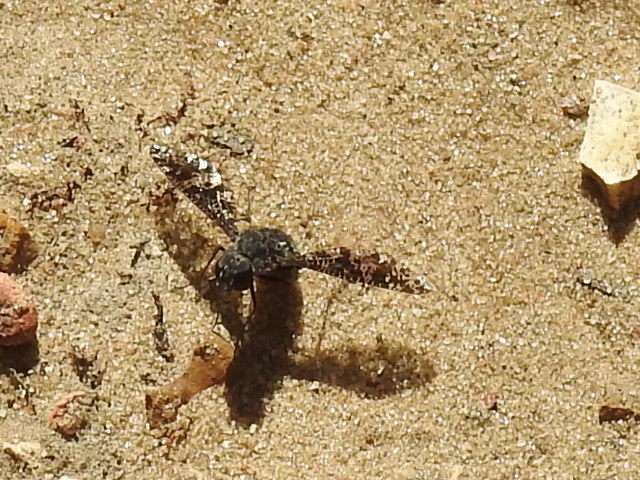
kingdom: Animalia
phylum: Arthropoda
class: Insecta
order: Diptera
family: Bombyliidae
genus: Anthrax
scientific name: Anthrax
